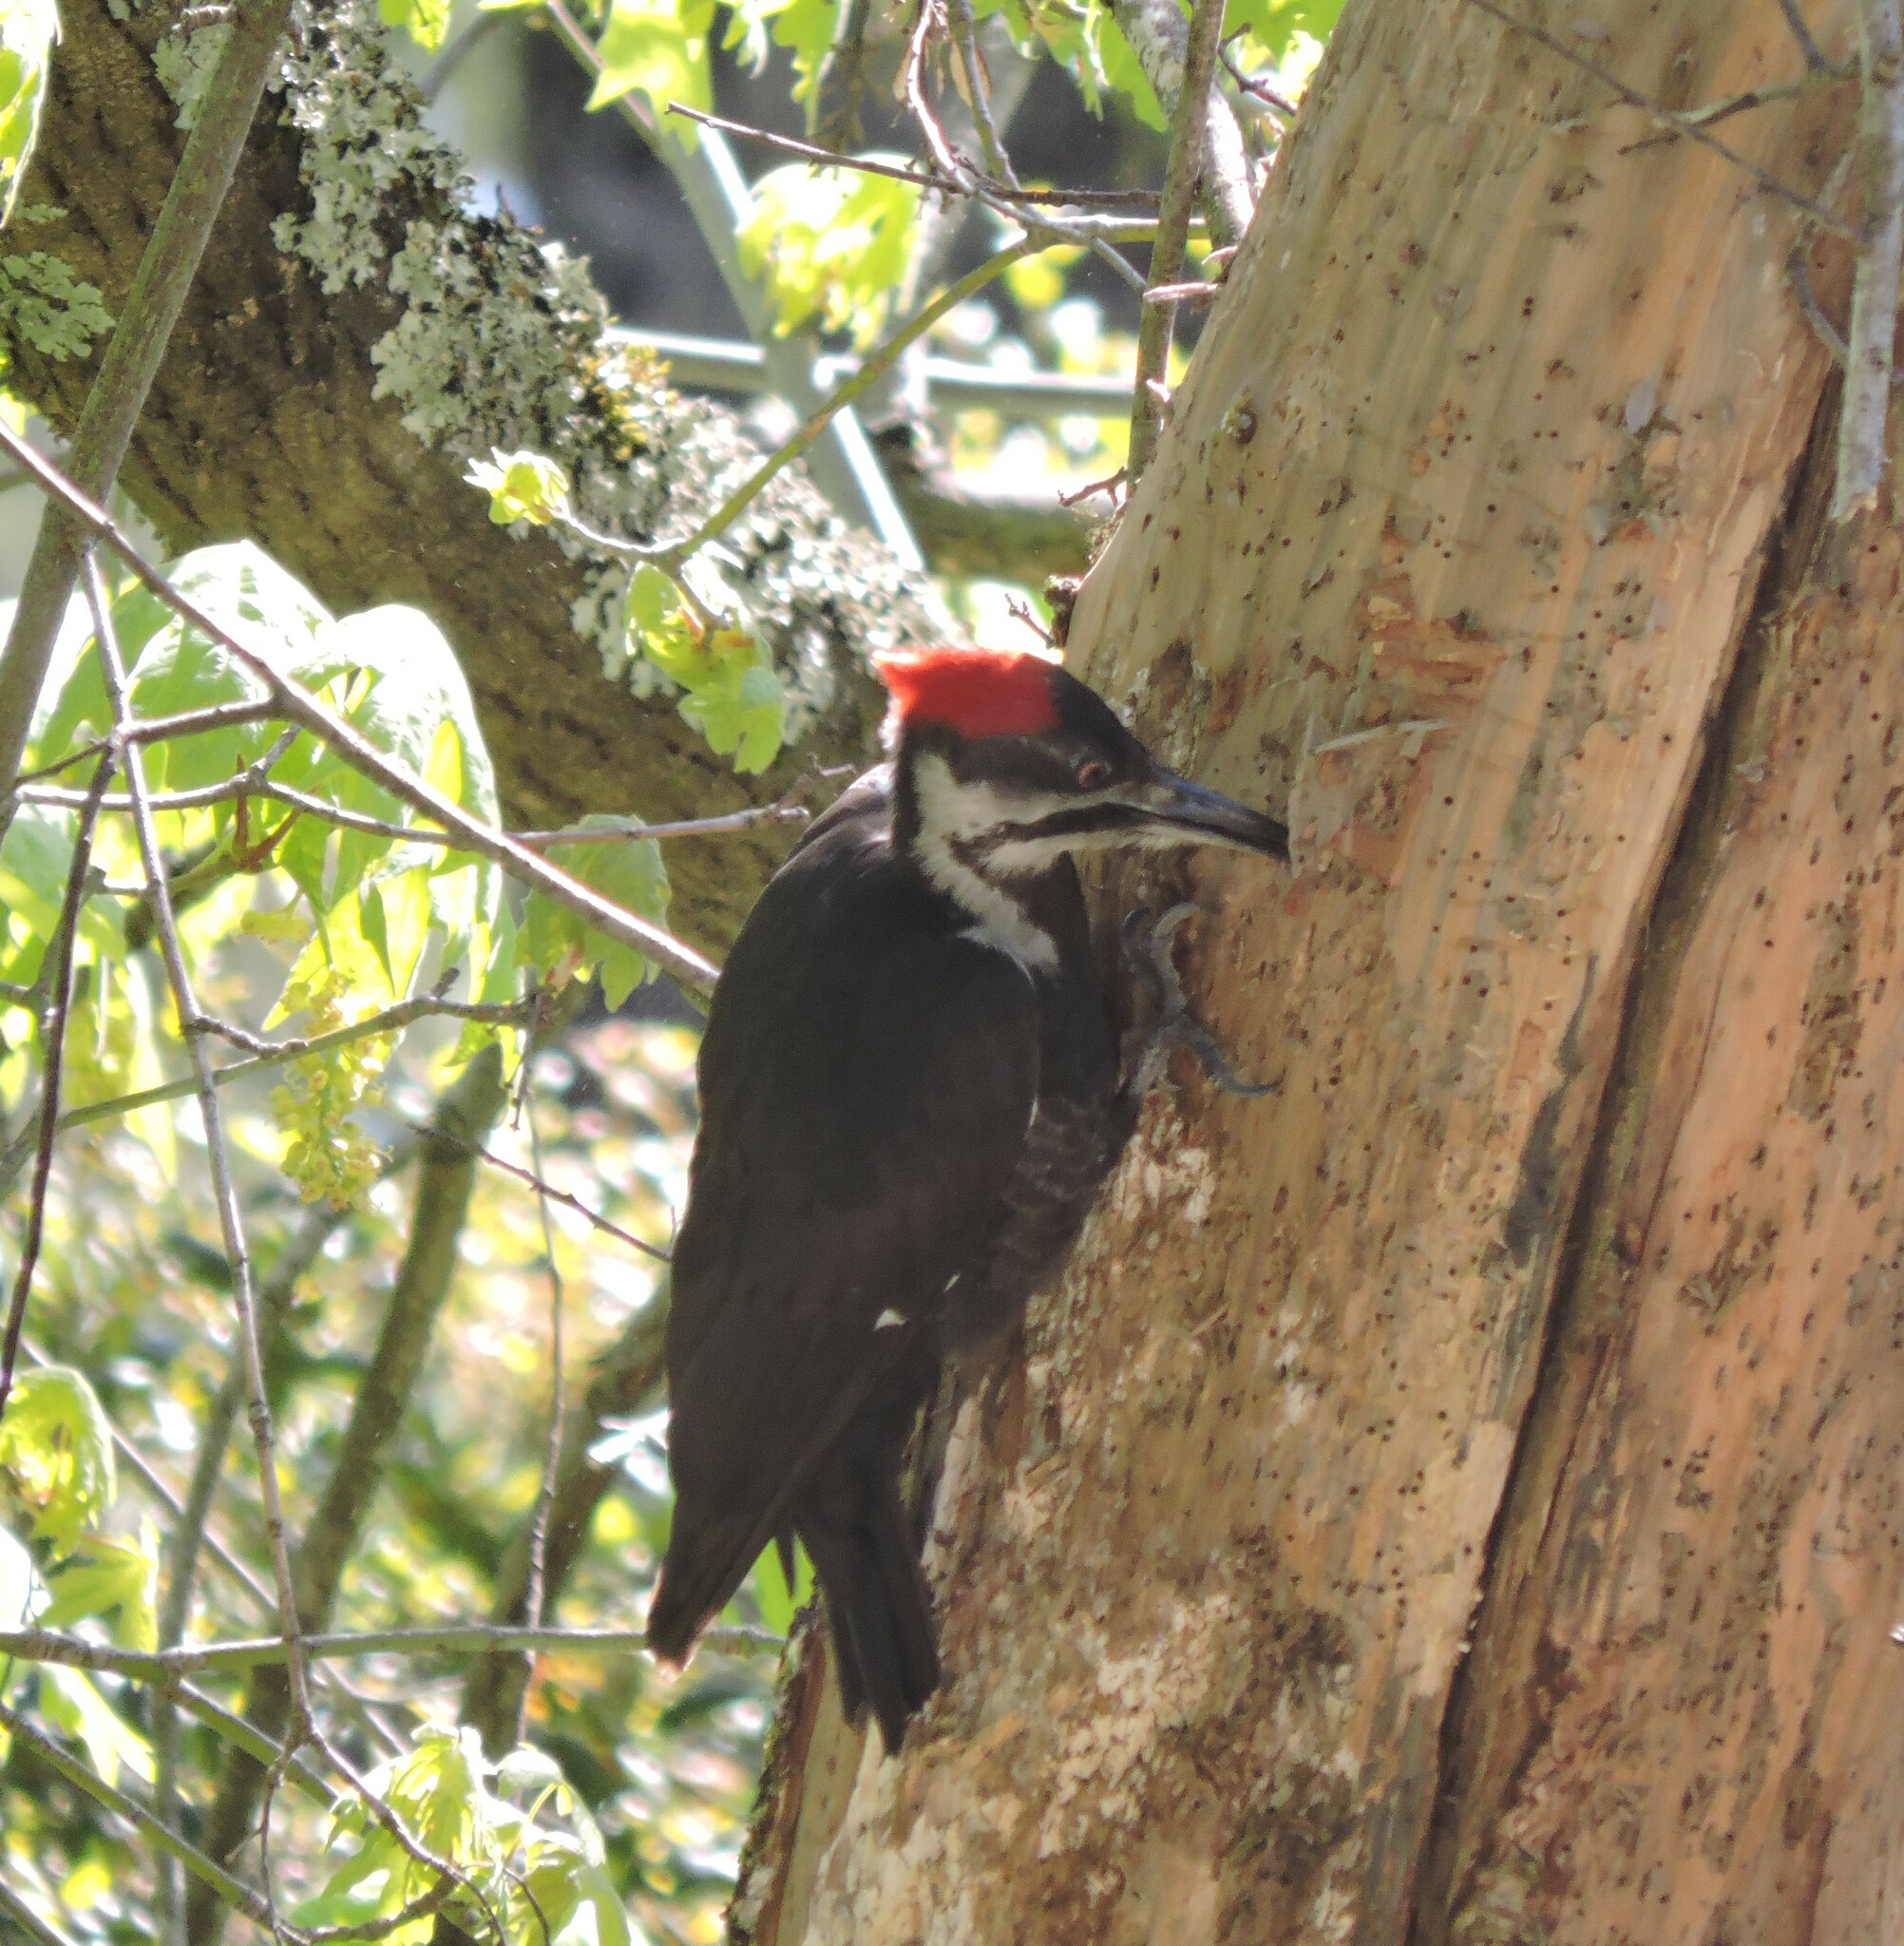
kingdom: Animalia
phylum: Chordata
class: Aves
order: Piciformes
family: Picidae
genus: Dryocopus
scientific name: Dryocopus pileatus
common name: Pileated woodpecker
